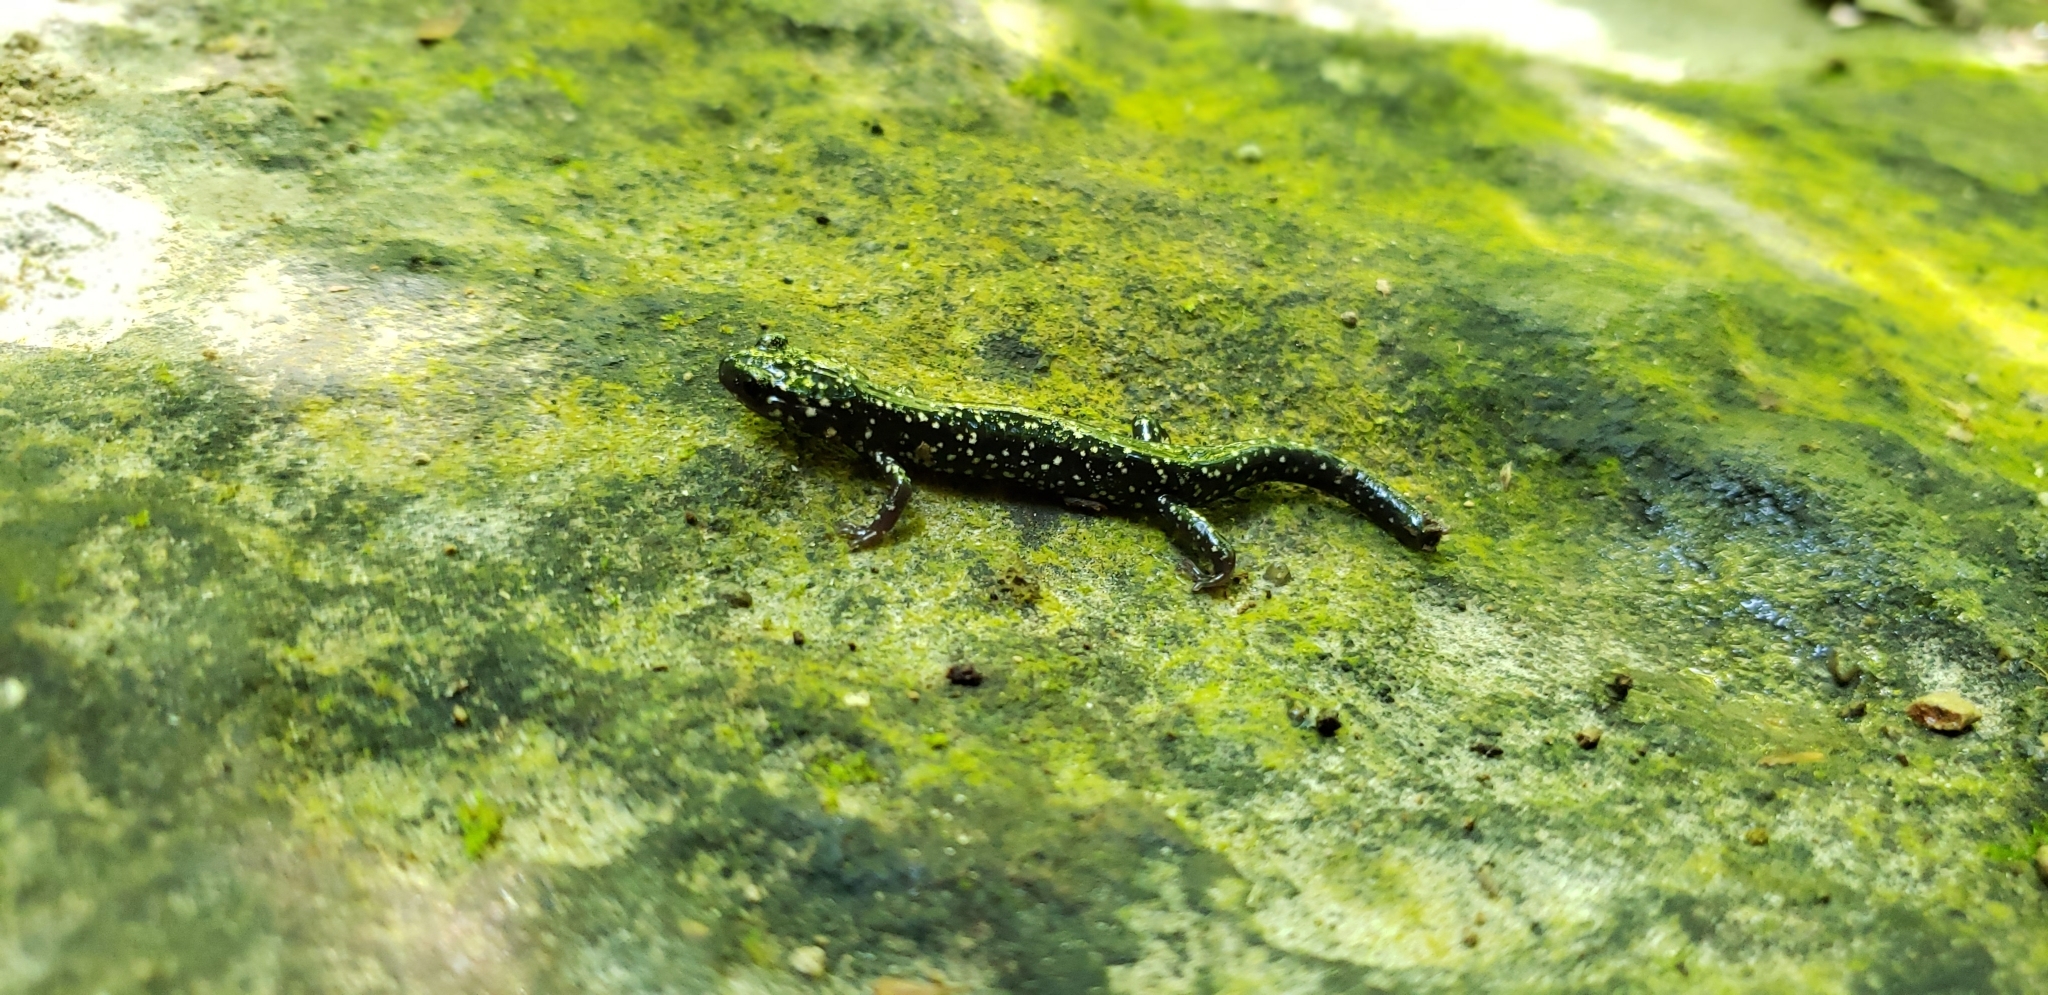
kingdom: Animalia
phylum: Chordata
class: Amphibia
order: Caudata
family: Plethodontidae
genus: Plethodon
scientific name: Plethodon glutinosus
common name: Northern slimy salamander
